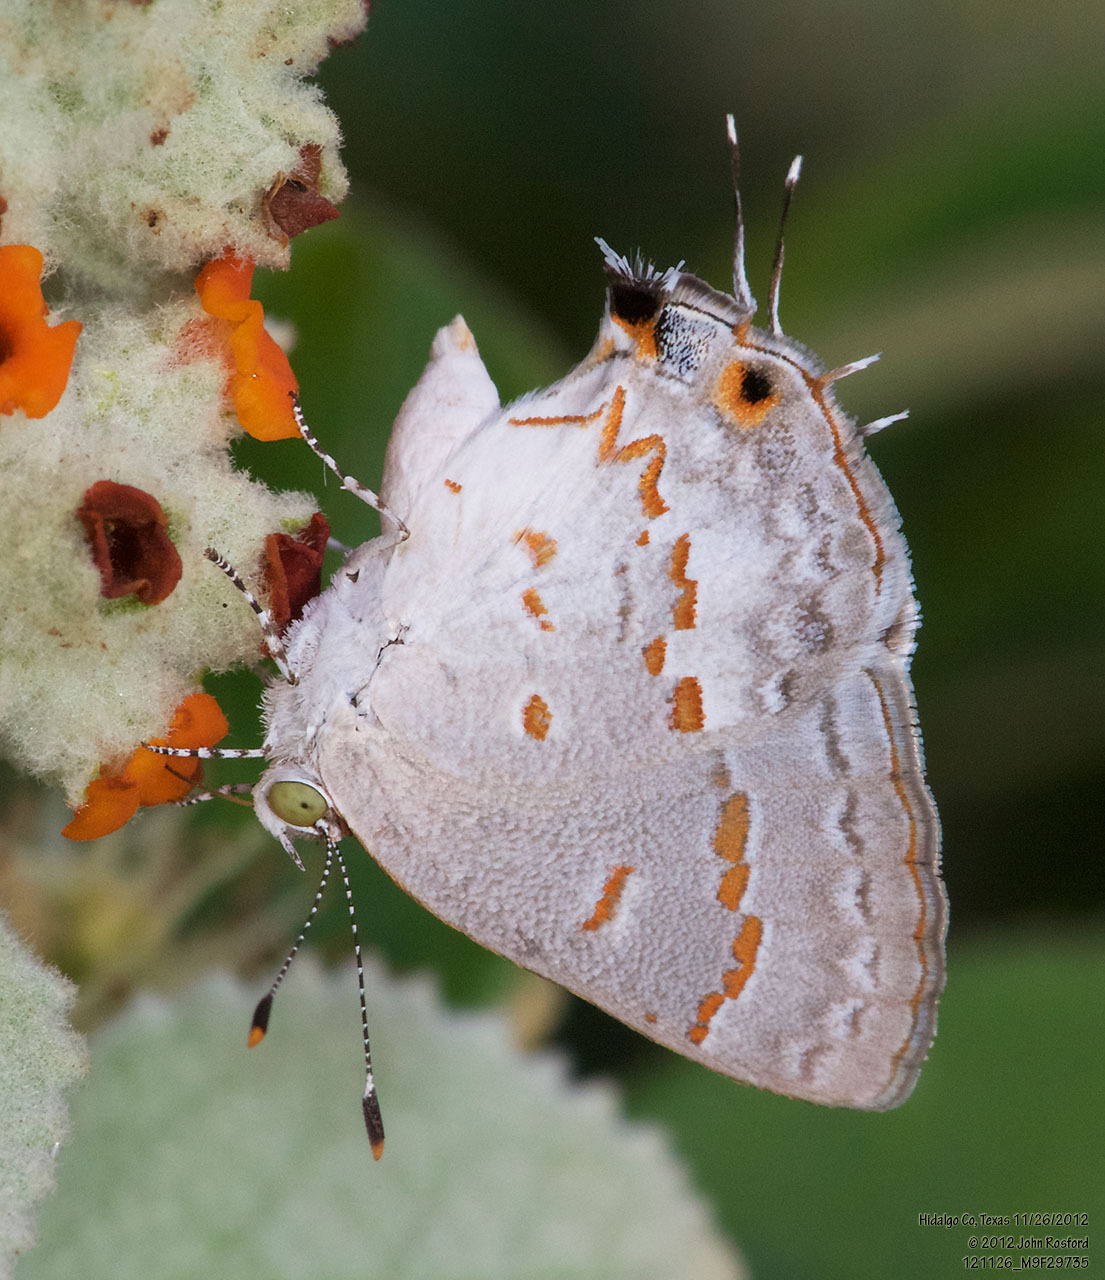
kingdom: Animalia
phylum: Arthropoda
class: Insecta
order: Lepidoptera
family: Lycaenidae
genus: Ministrymon
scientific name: Ministrymon clytie
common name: Clytie ministreak
